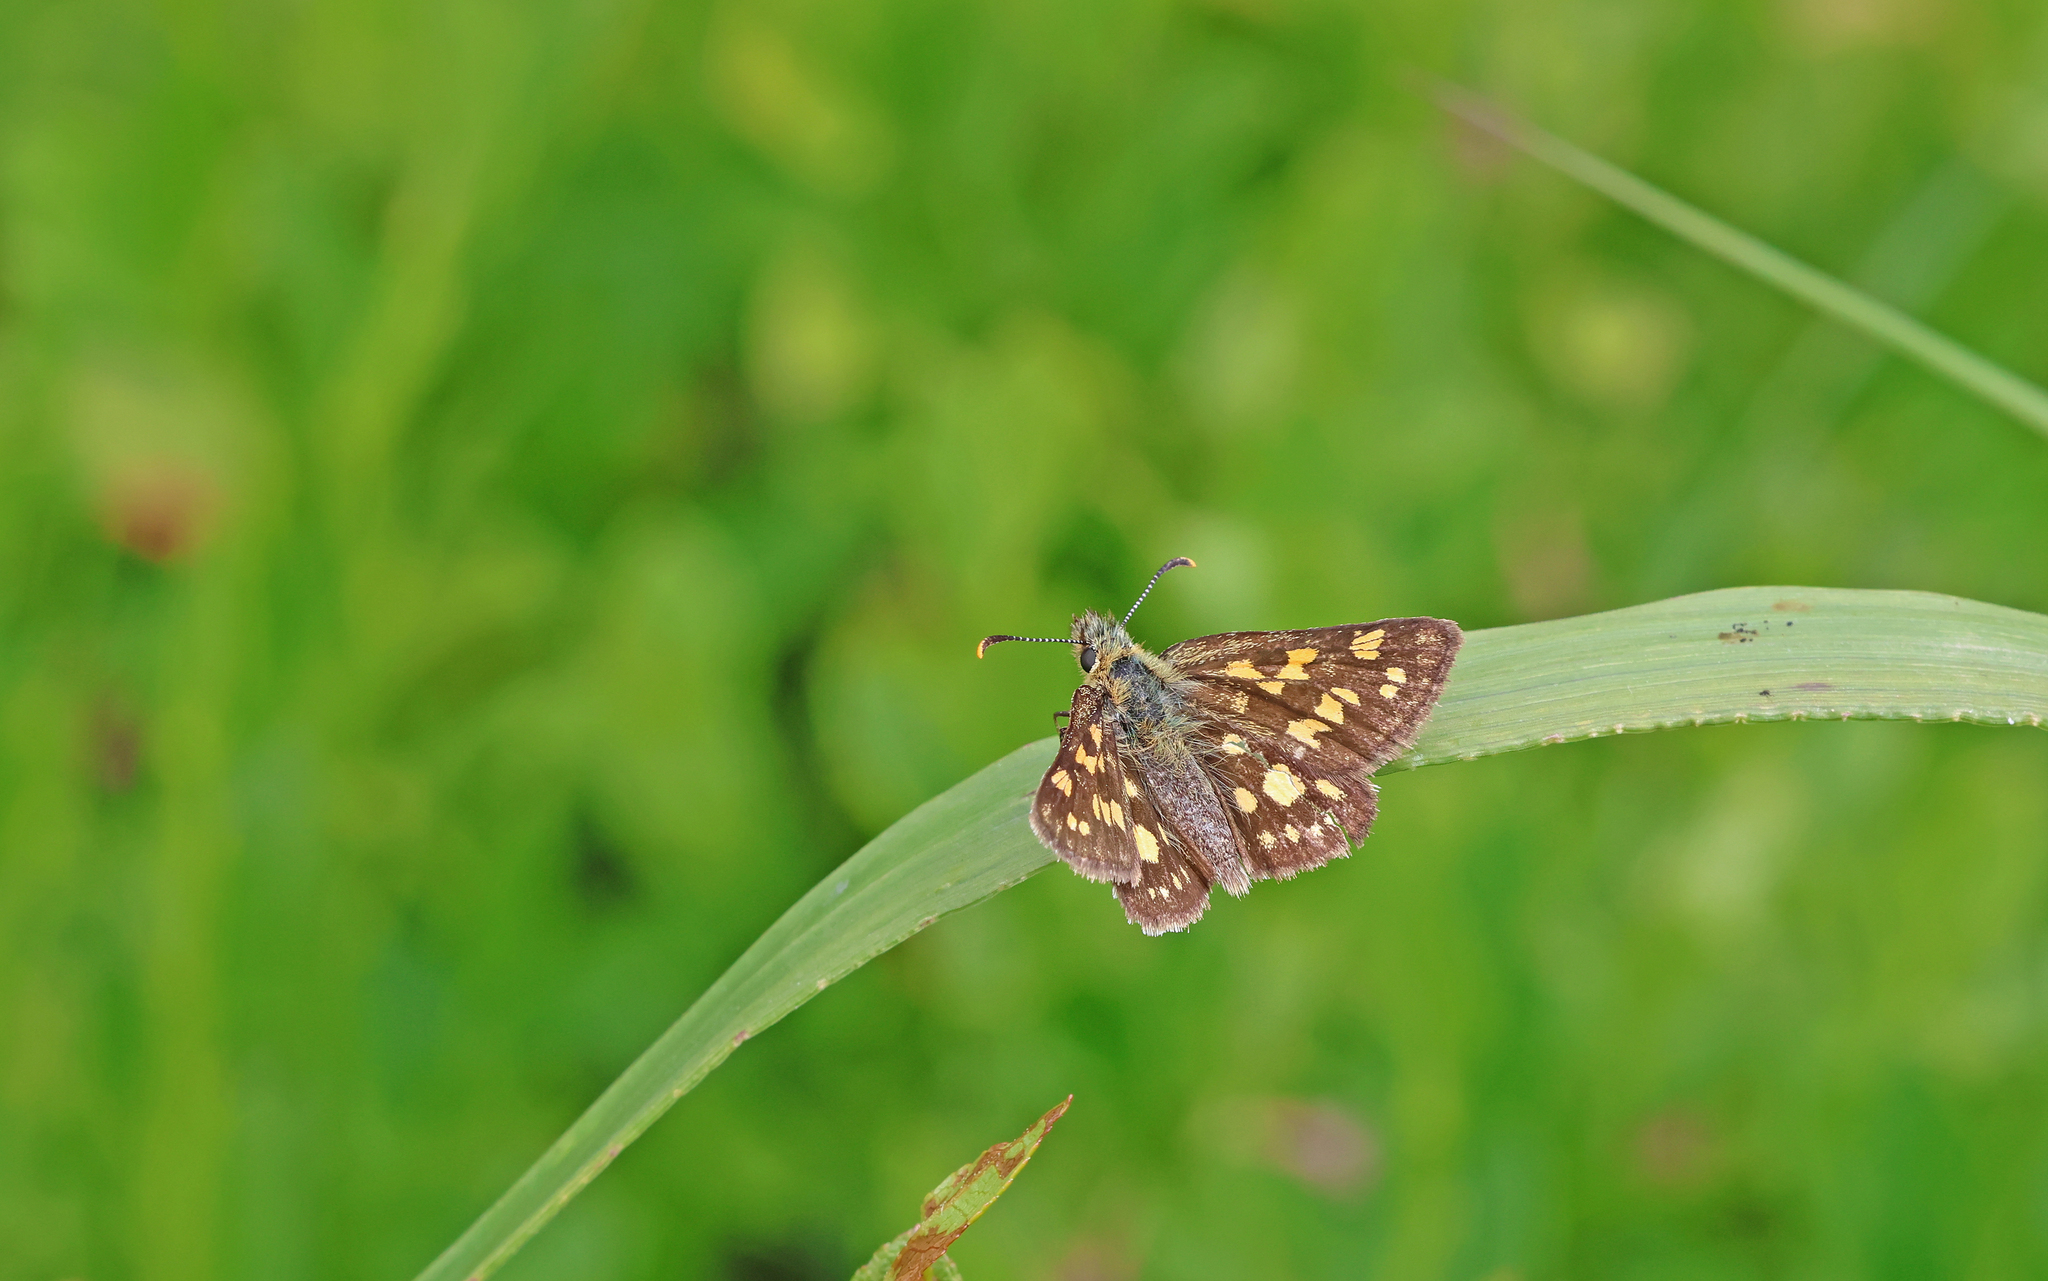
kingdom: Animalia
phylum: Arthropoda
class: Insecta
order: Lepidoptera
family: Hesperiidae
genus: Carterocephalus
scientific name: Carterocephalus palaemon
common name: Chequered skipper
